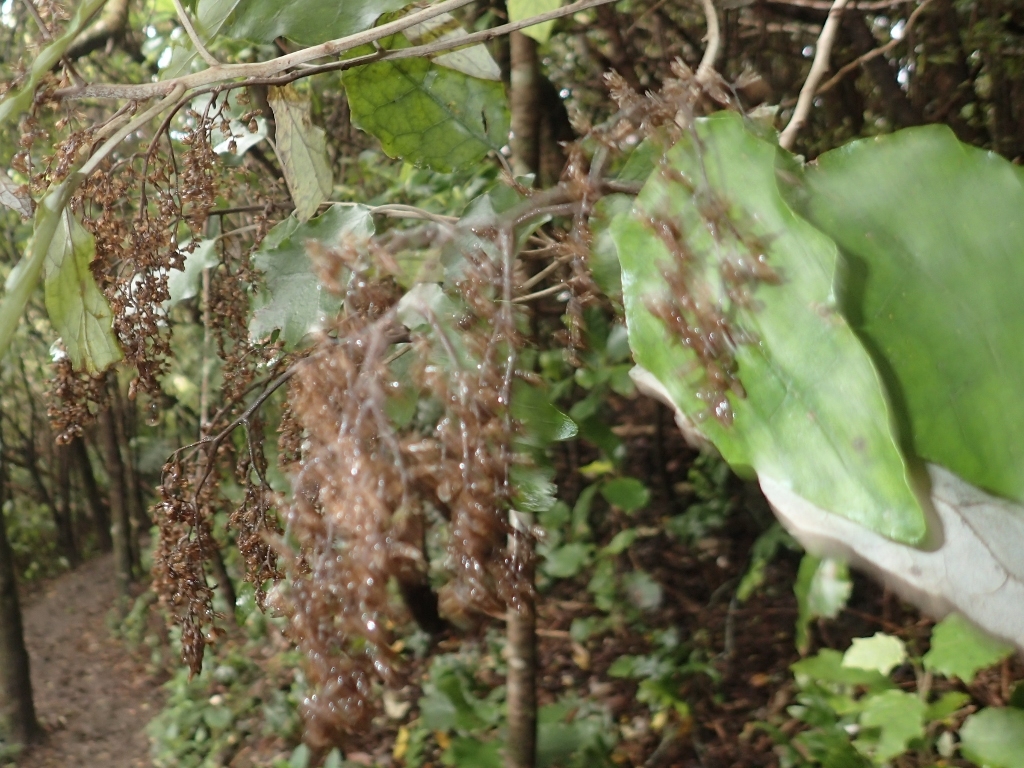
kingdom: Plantae
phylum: Tracheophyta
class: Magnoliopsida
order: Asterales
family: Asteraceae
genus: Brachyglottis
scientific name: Brachyglottis repanda
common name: Hedge ragwort
